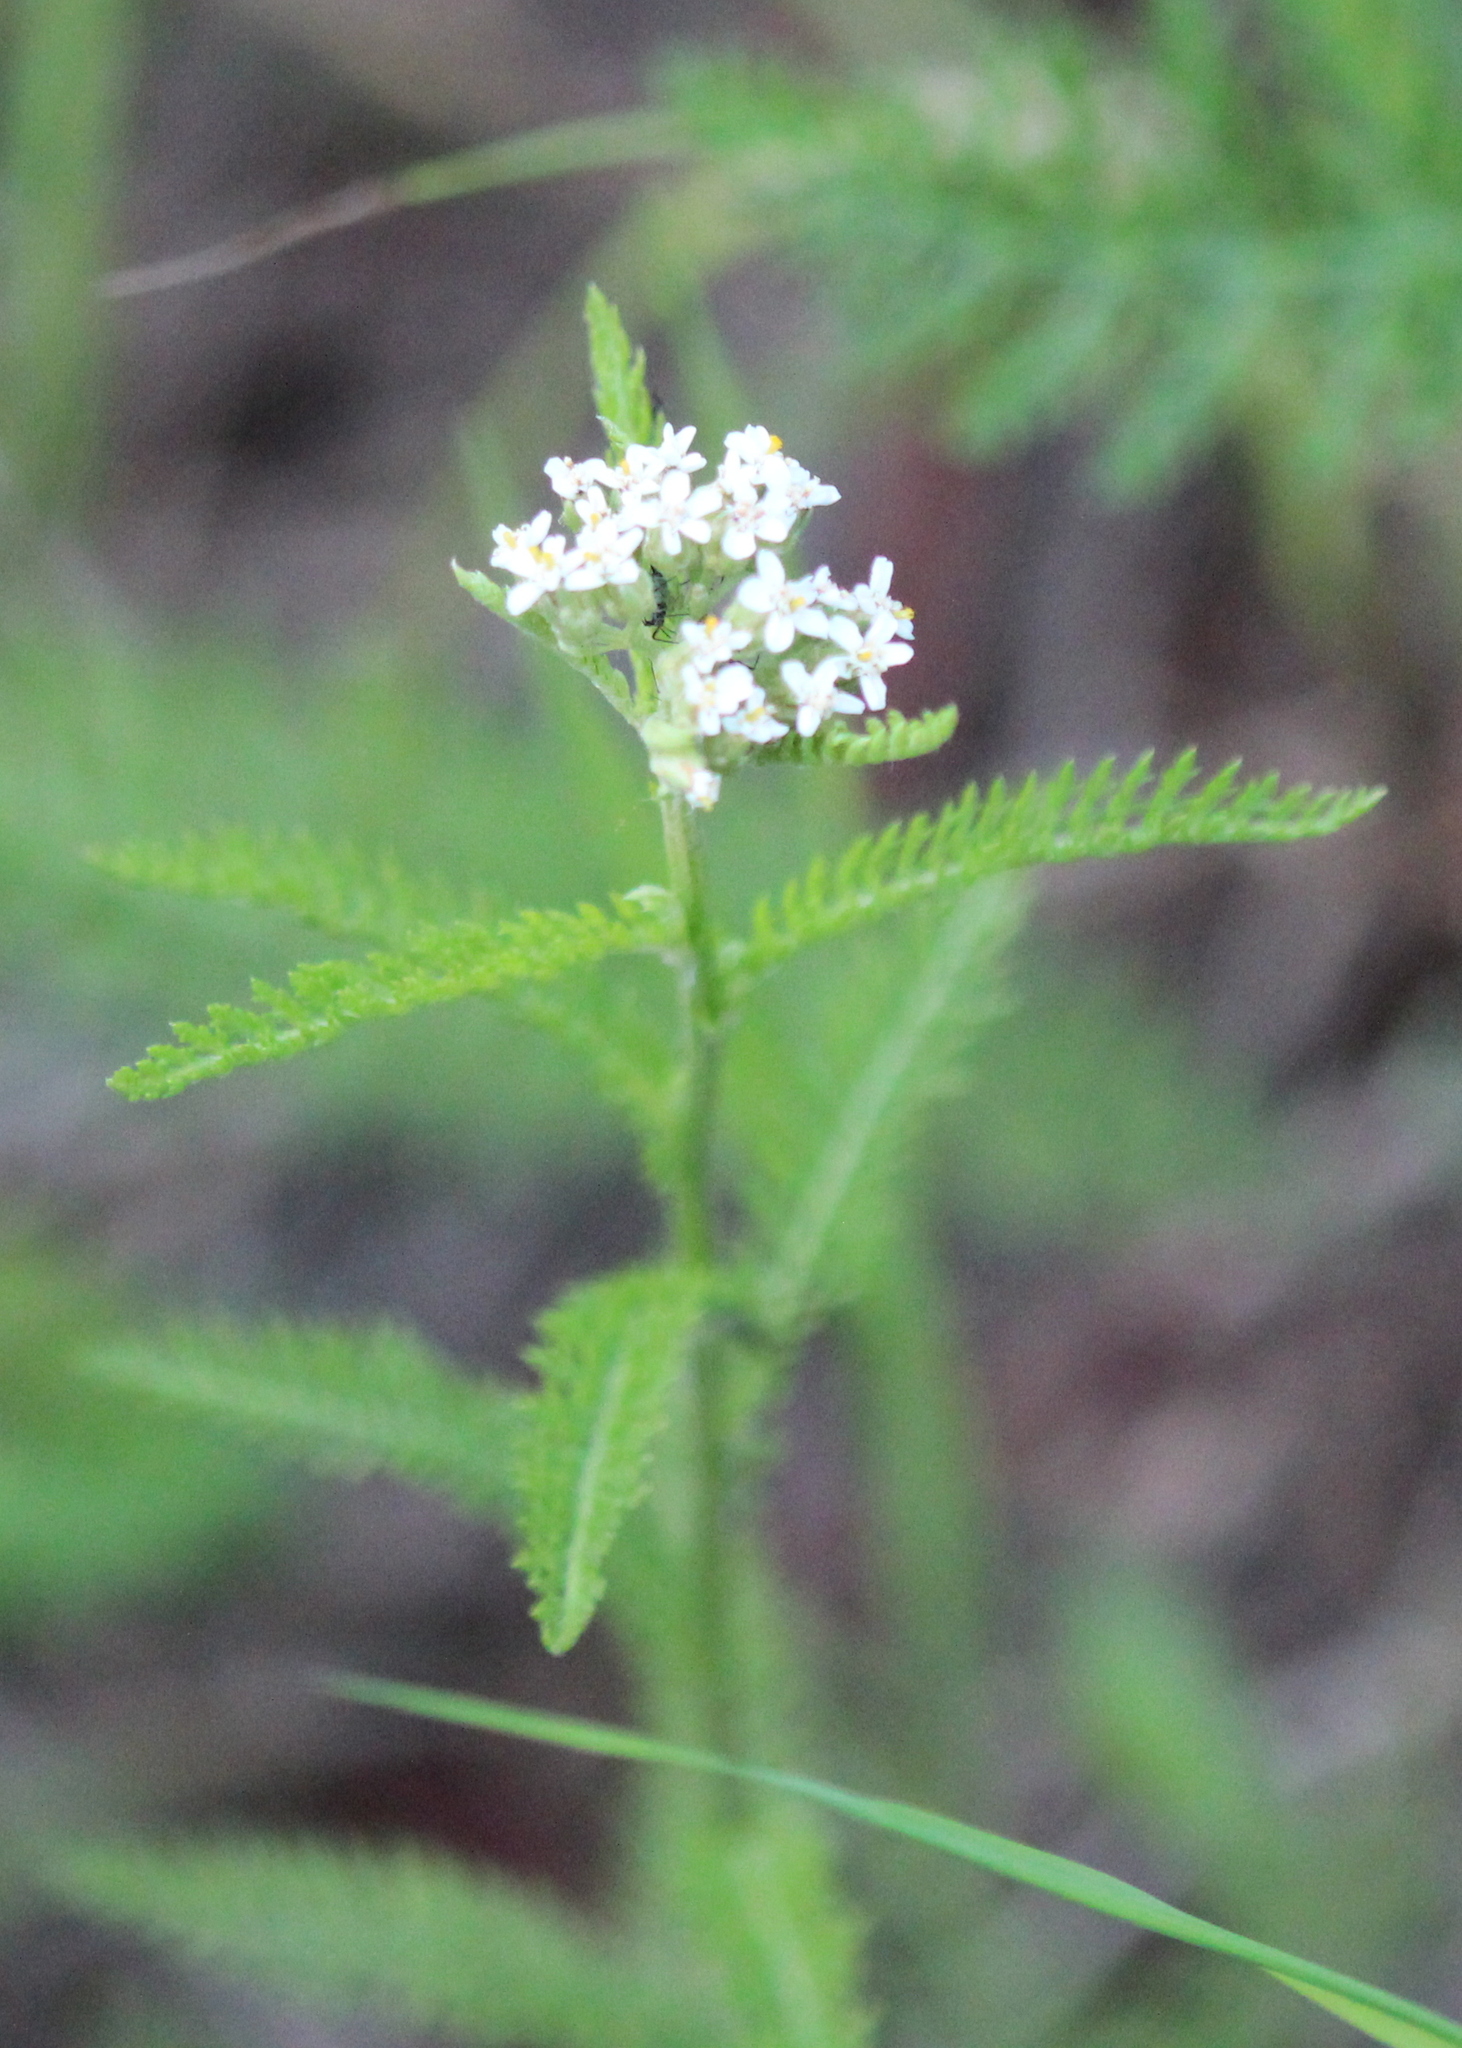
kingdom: Plantae
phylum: Tracheophyta
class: Magnoliopsida
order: Asterales
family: Asteraceae
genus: Achillea
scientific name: Achillea millefolium
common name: Yarrow
